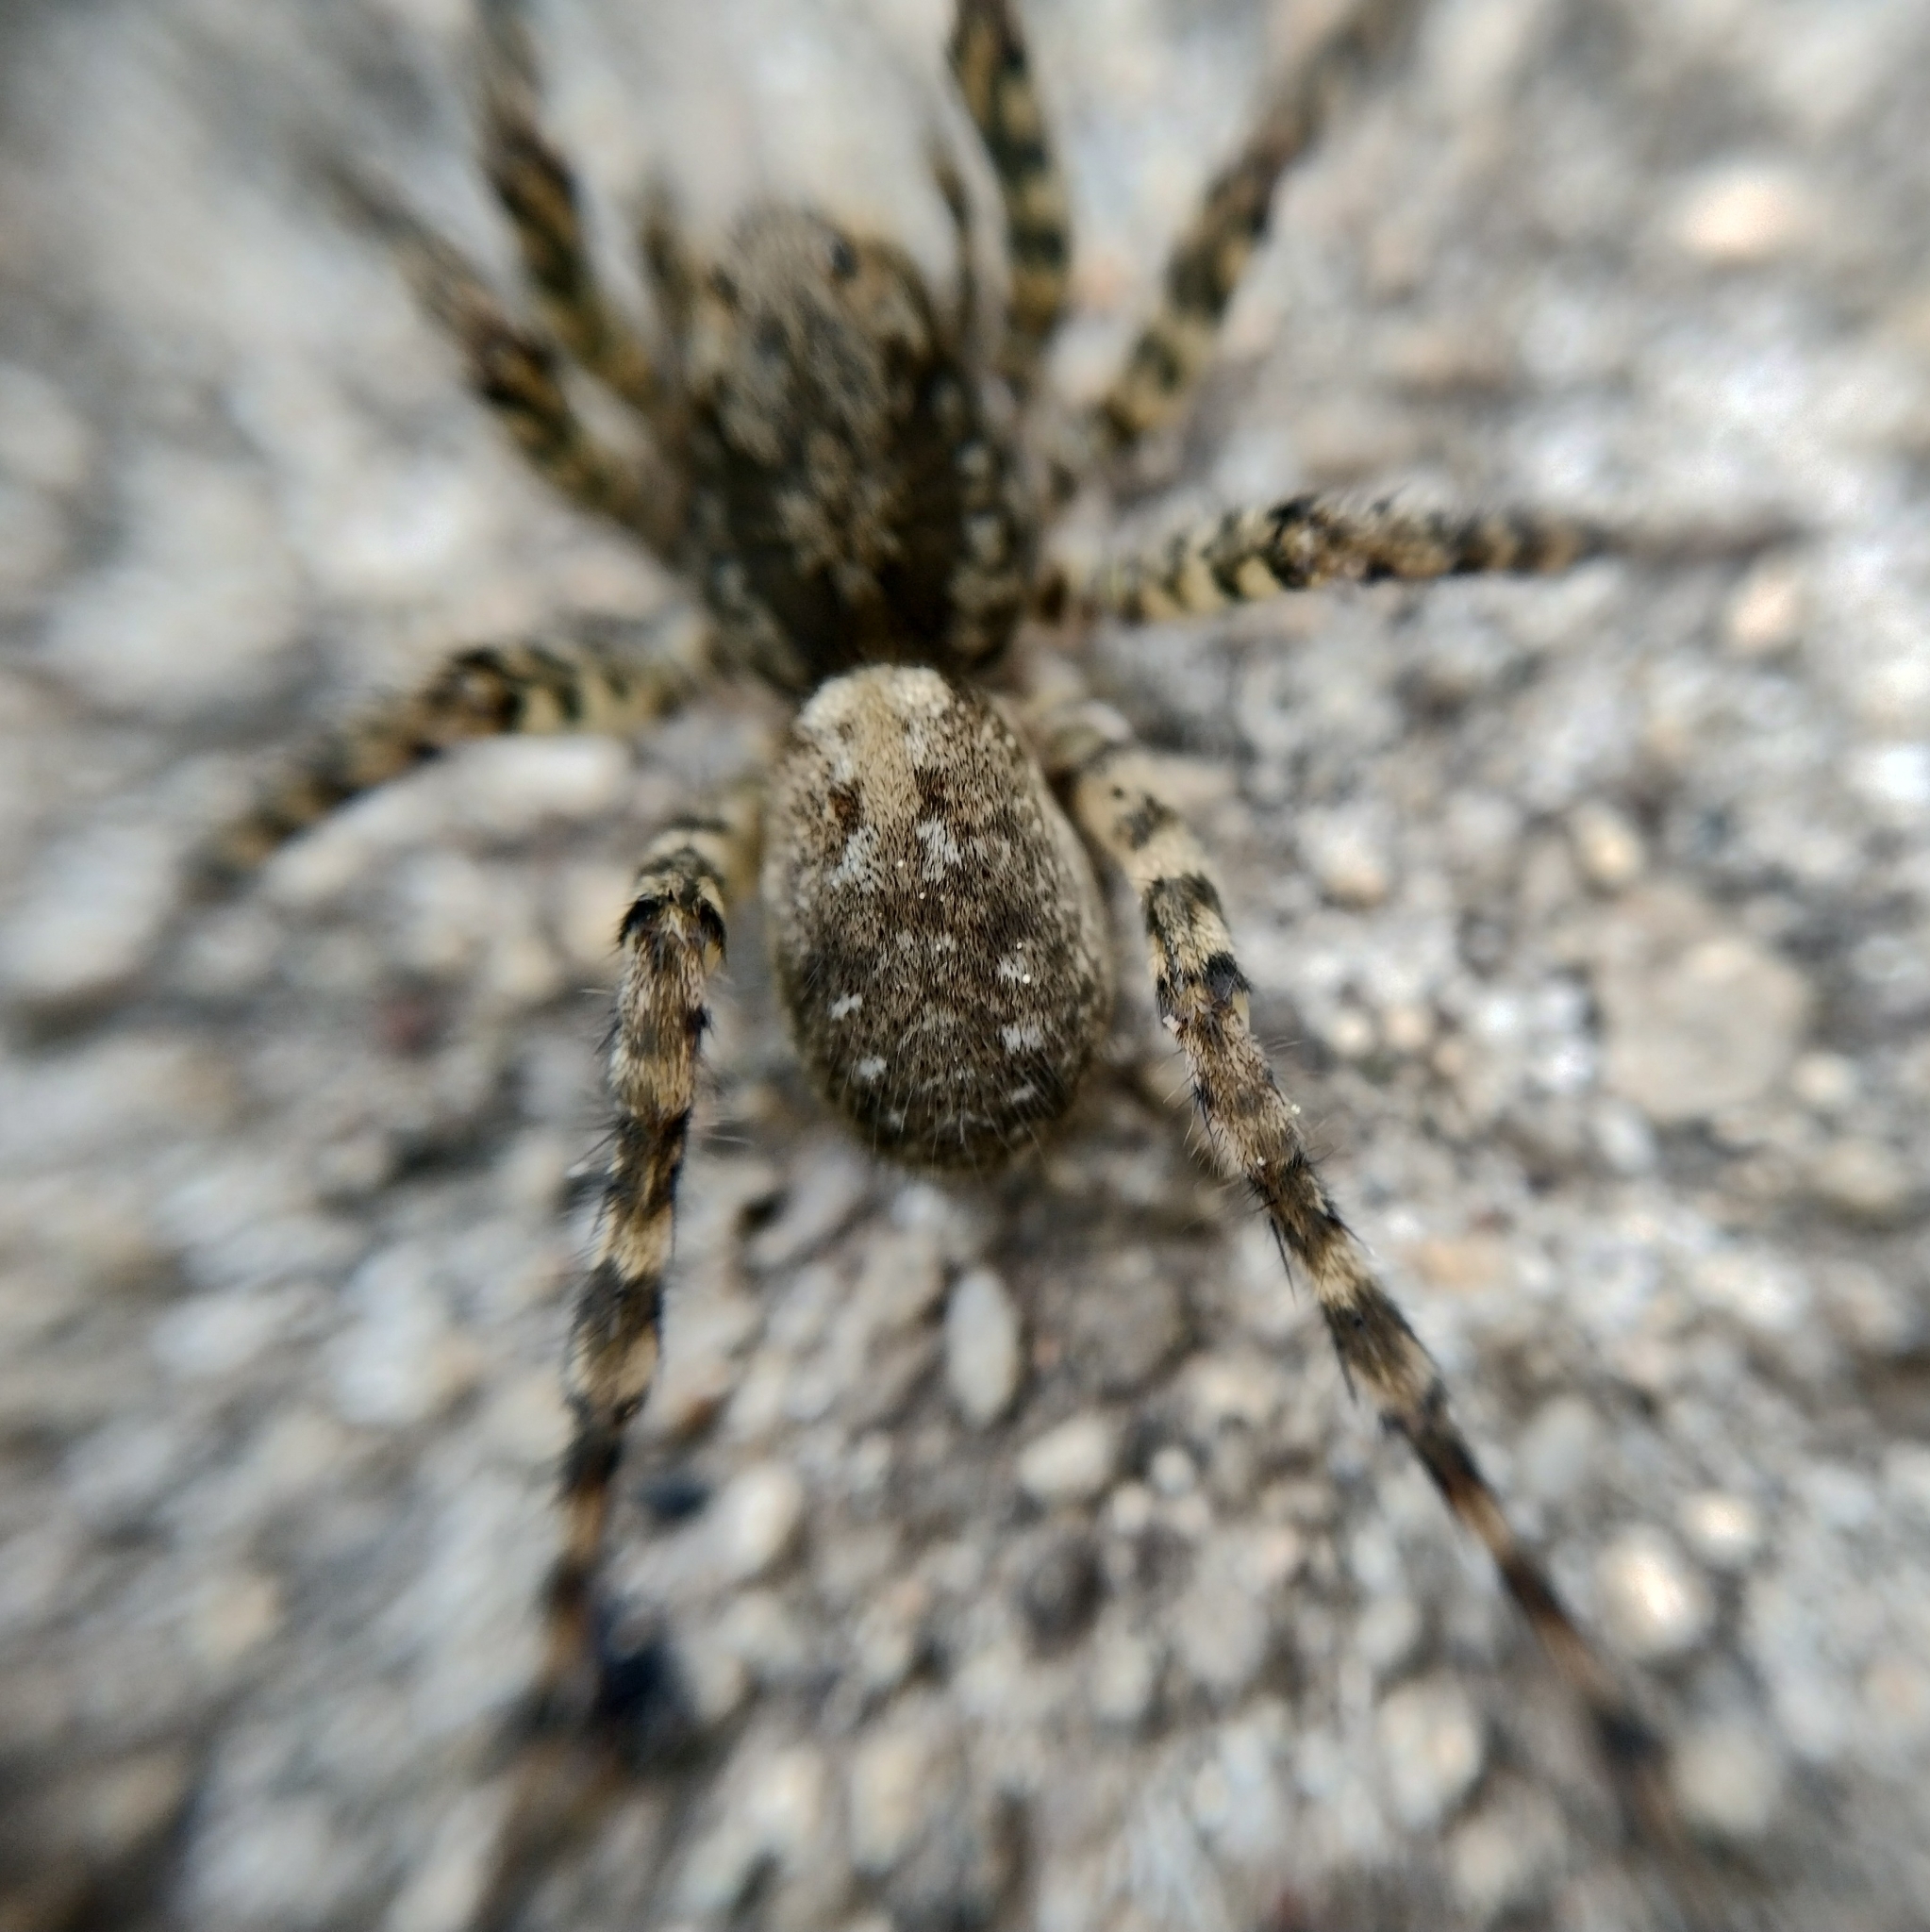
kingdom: Animalia
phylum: Arthropoda
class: Arachnida
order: Araneae
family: Lycosidae
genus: Arctosa
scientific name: Arctosa maculata
